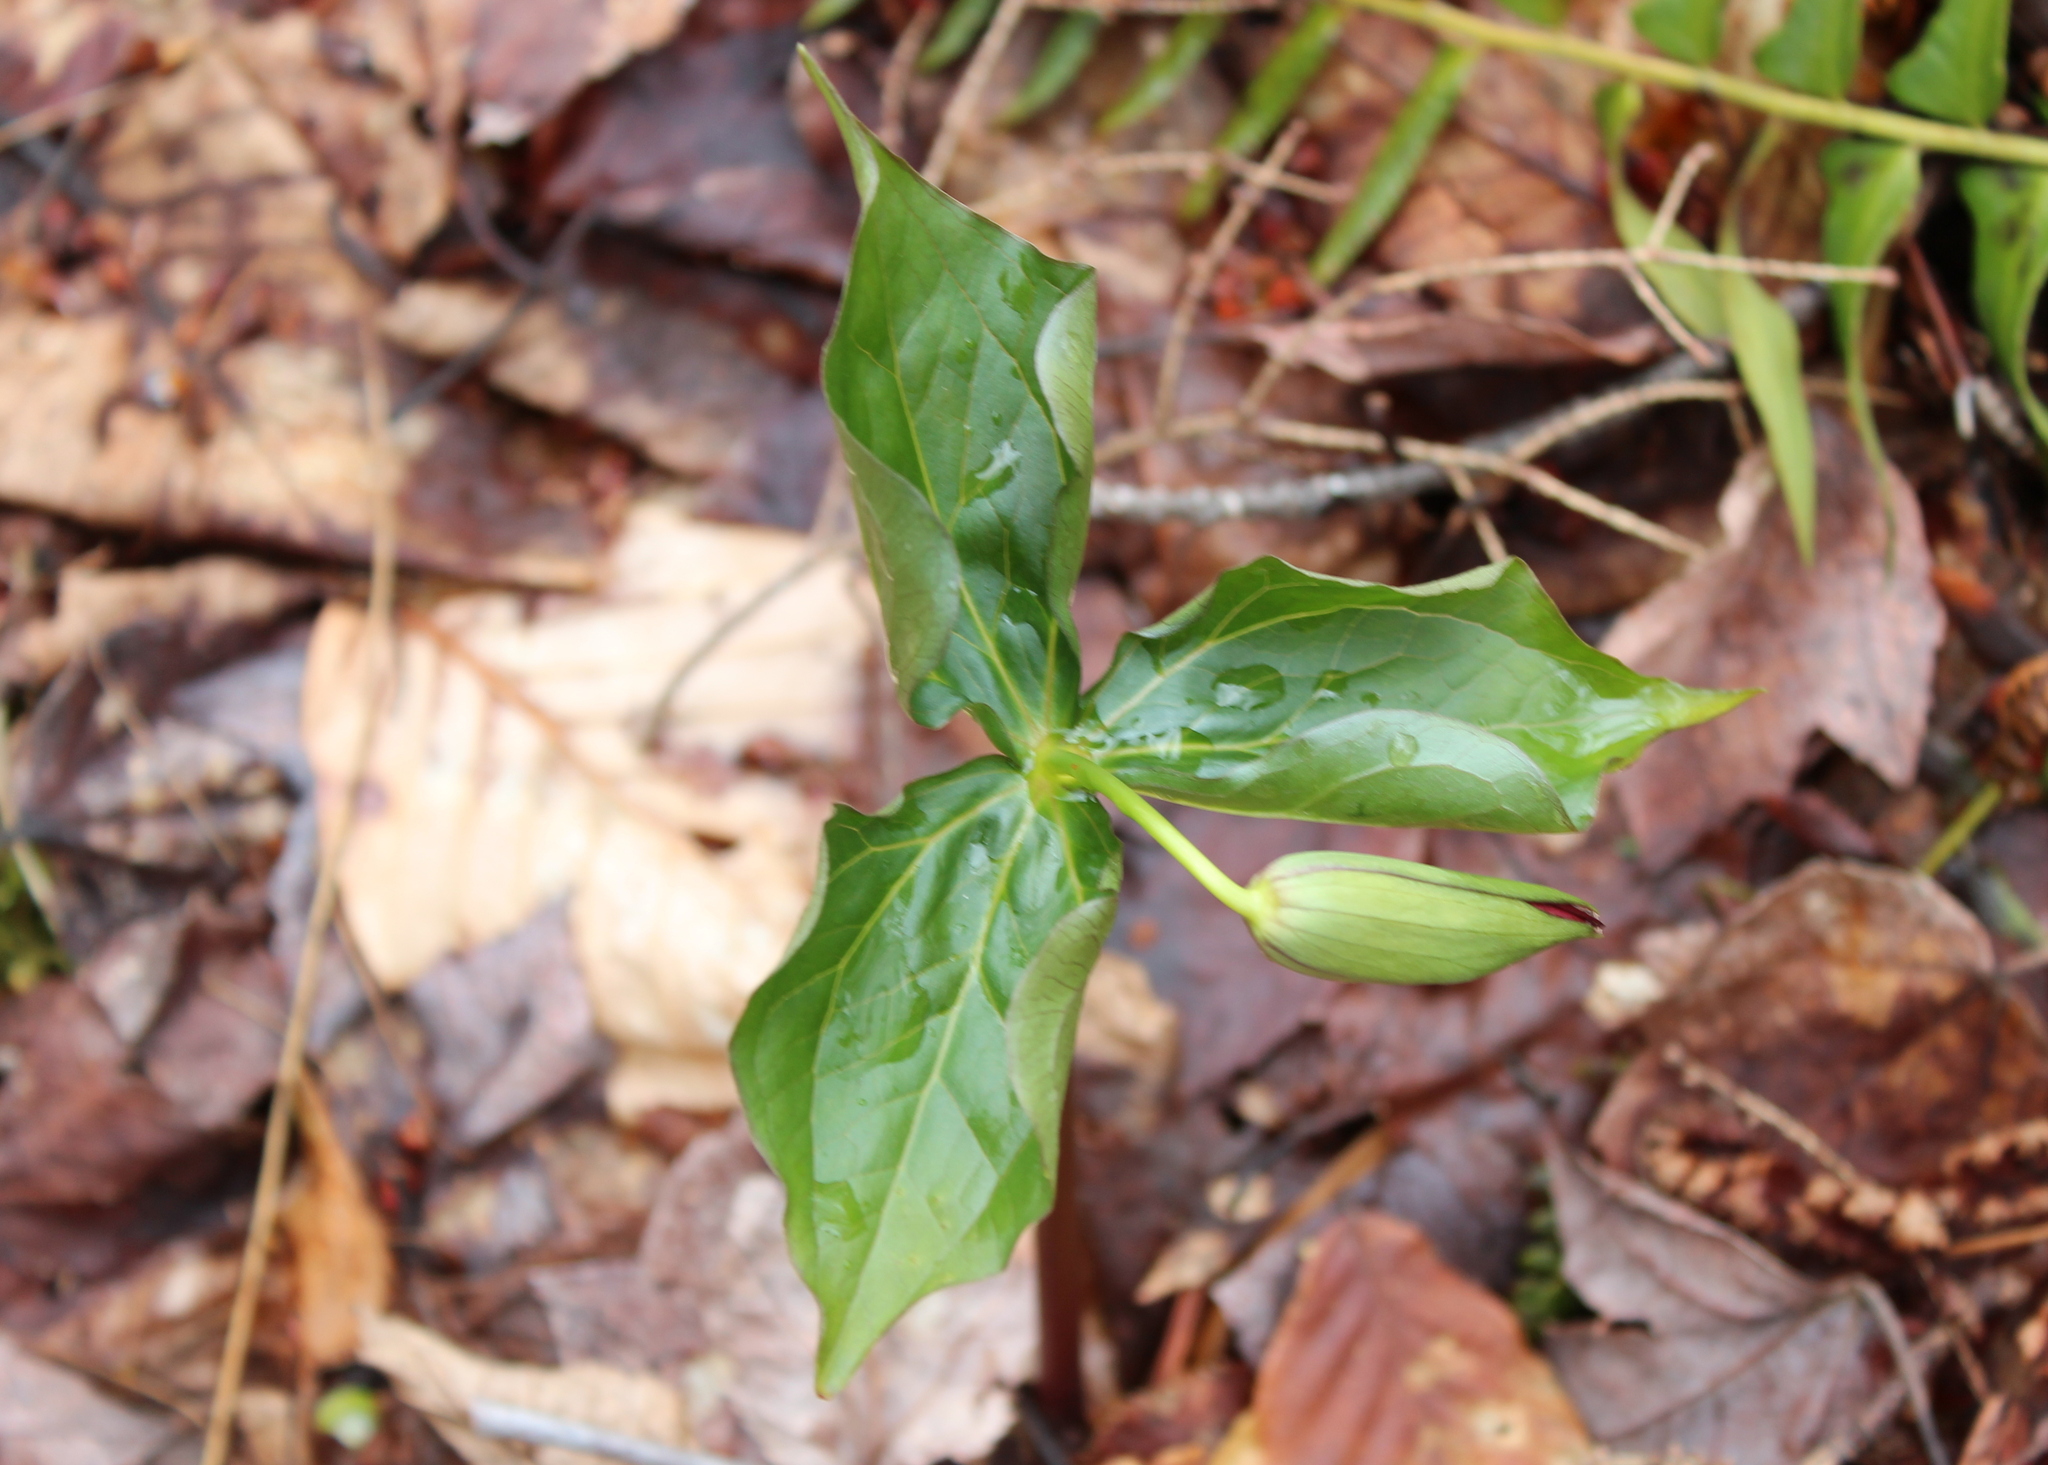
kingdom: Plantae
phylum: Tracheophyta
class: Liliopsida
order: Liliales
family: Melanthiaceae
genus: Trillium
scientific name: Trillium erectum
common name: Purple trillium
